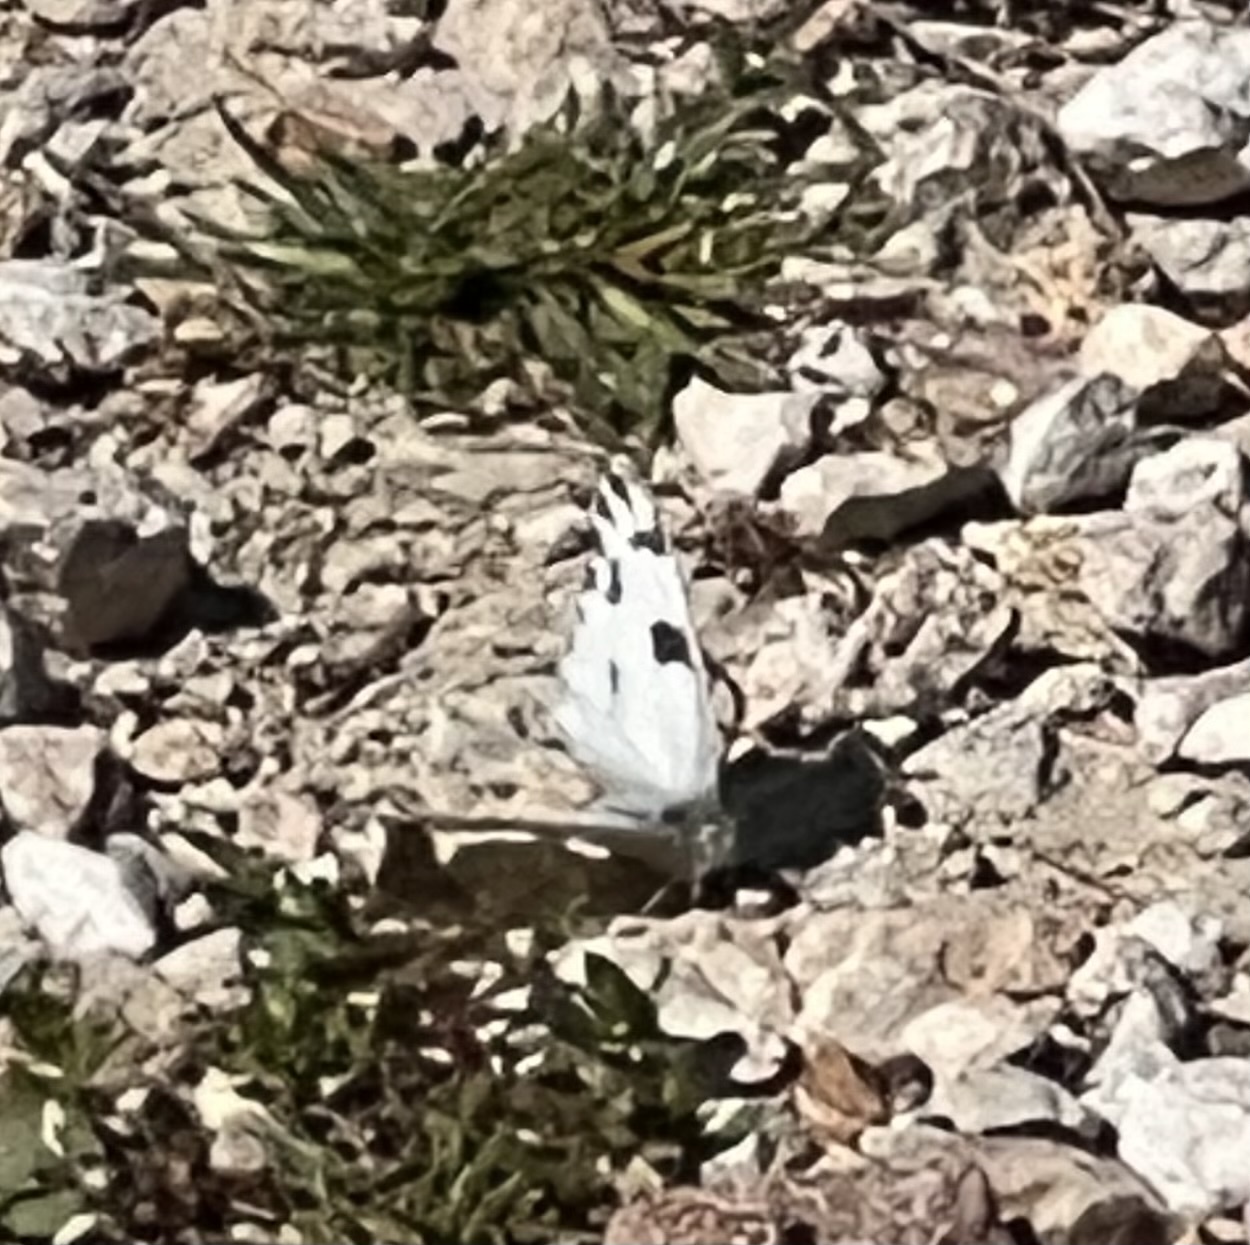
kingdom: Animalia
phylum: Arthropoda
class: Insecta
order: Lepidoptera
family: Pieridae
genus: Pontia
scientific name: Pontia protodice
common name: Checkered white
